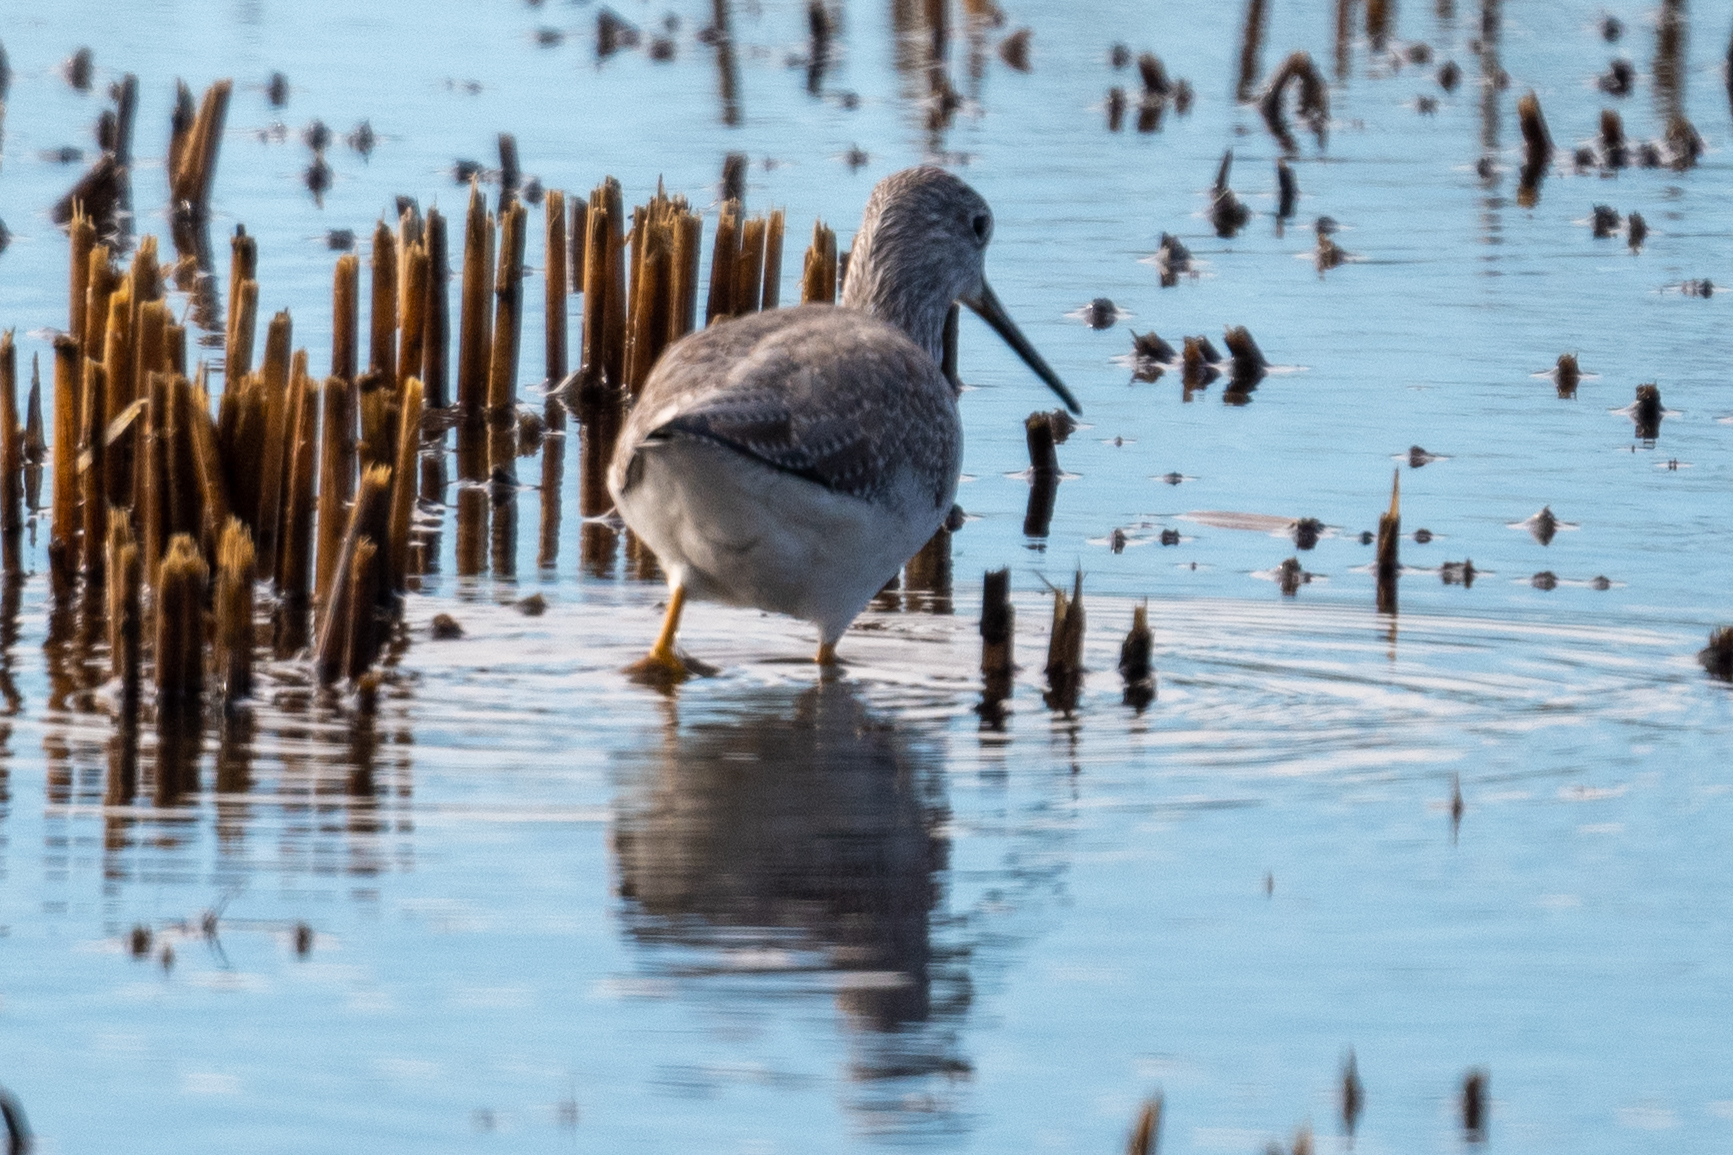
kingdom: Animalia
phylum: Chordata
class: Aves
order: Charadriiformes
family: Scolopacidae
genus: Tringa
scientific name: Tringa melanoleuca
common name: Greater yellowlegs
